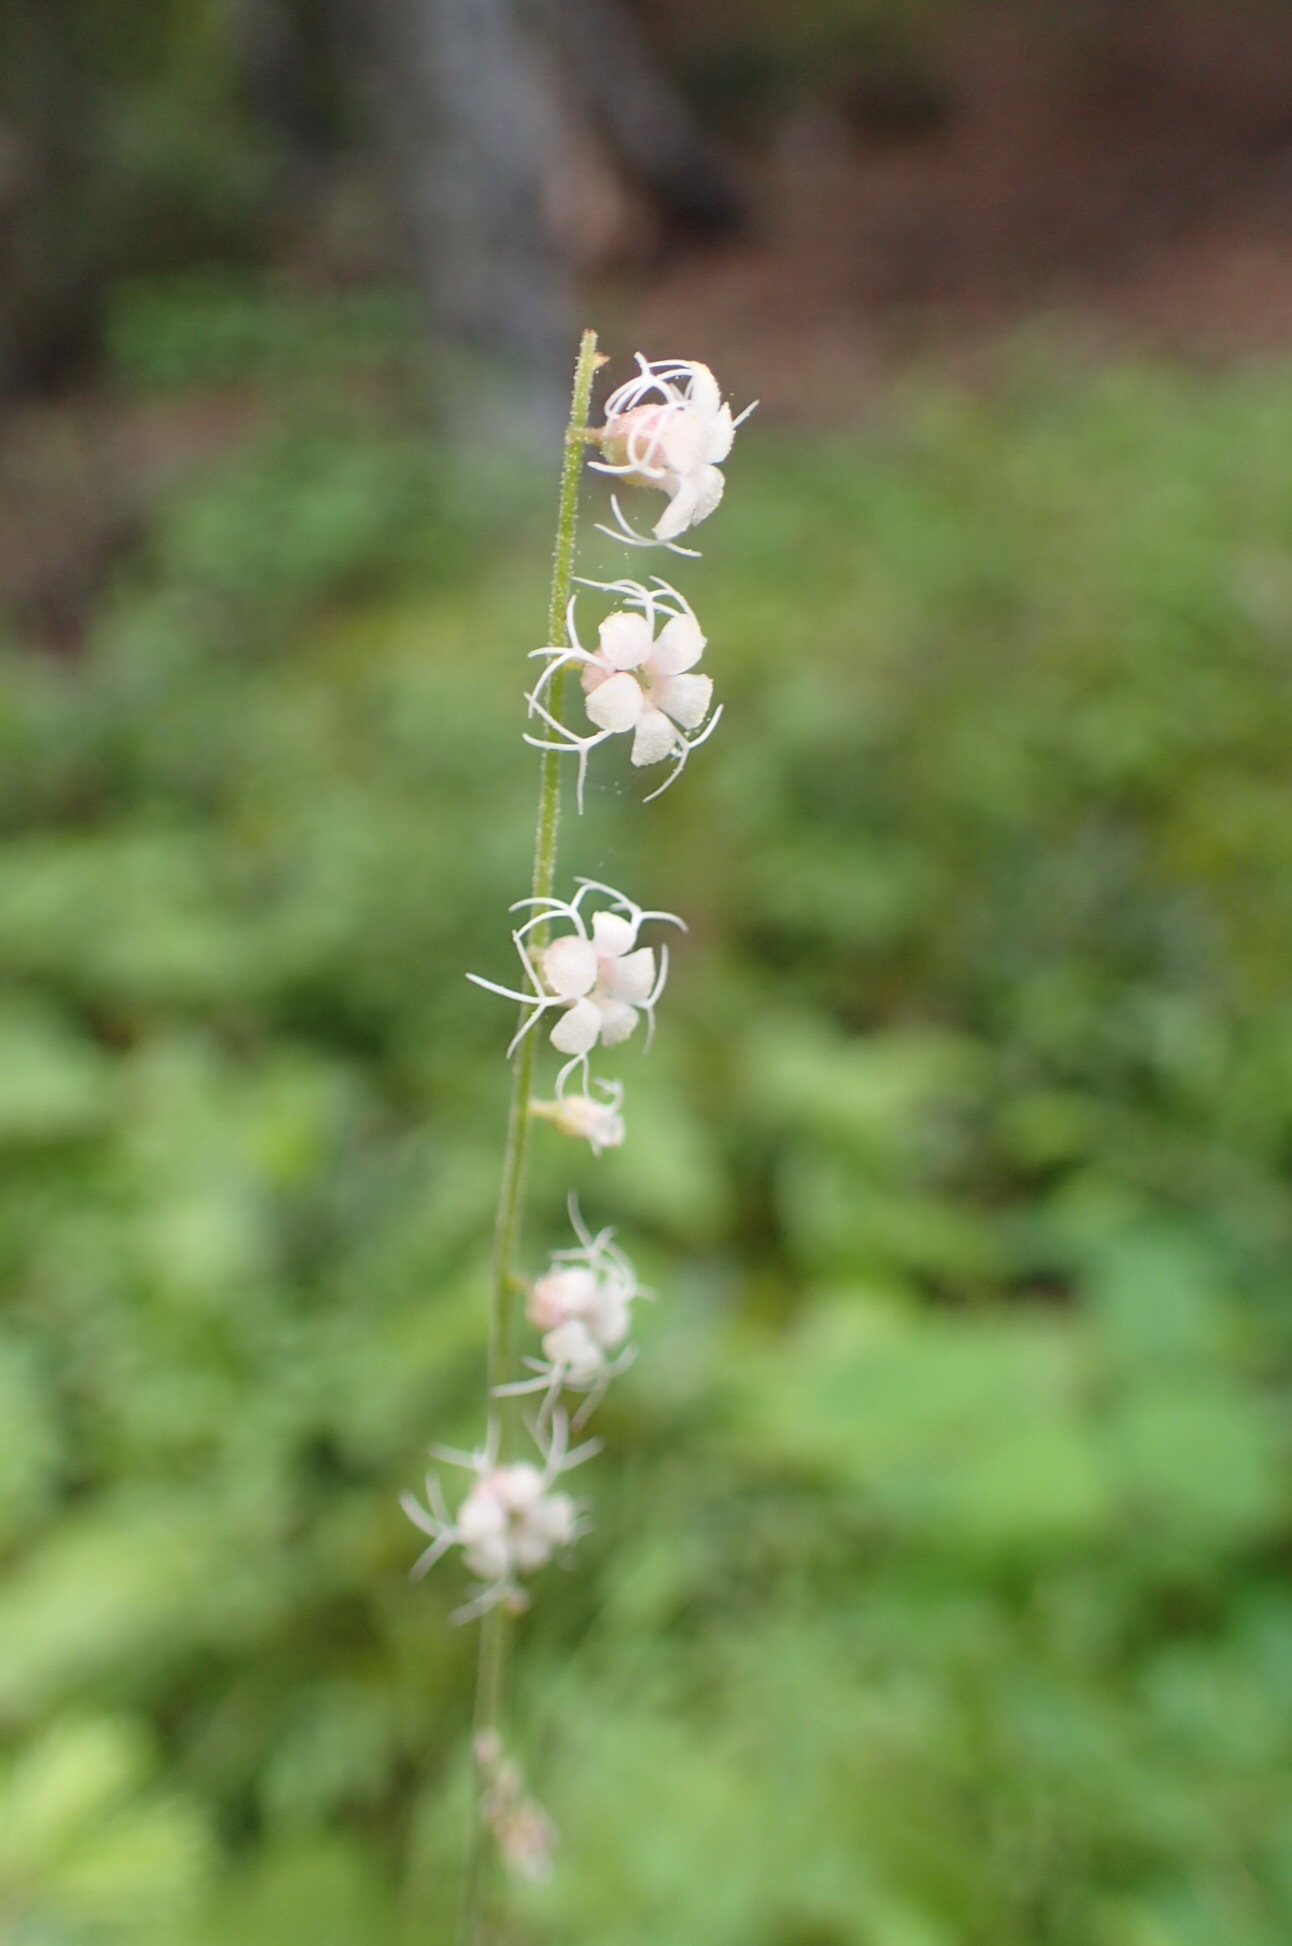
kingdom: Plantae
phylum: Tracheophyta
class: Magnoliopsida
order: Saxifragales
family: Saxifragaceae
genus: Ozomelis
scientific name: Ozomelis stauropetala
